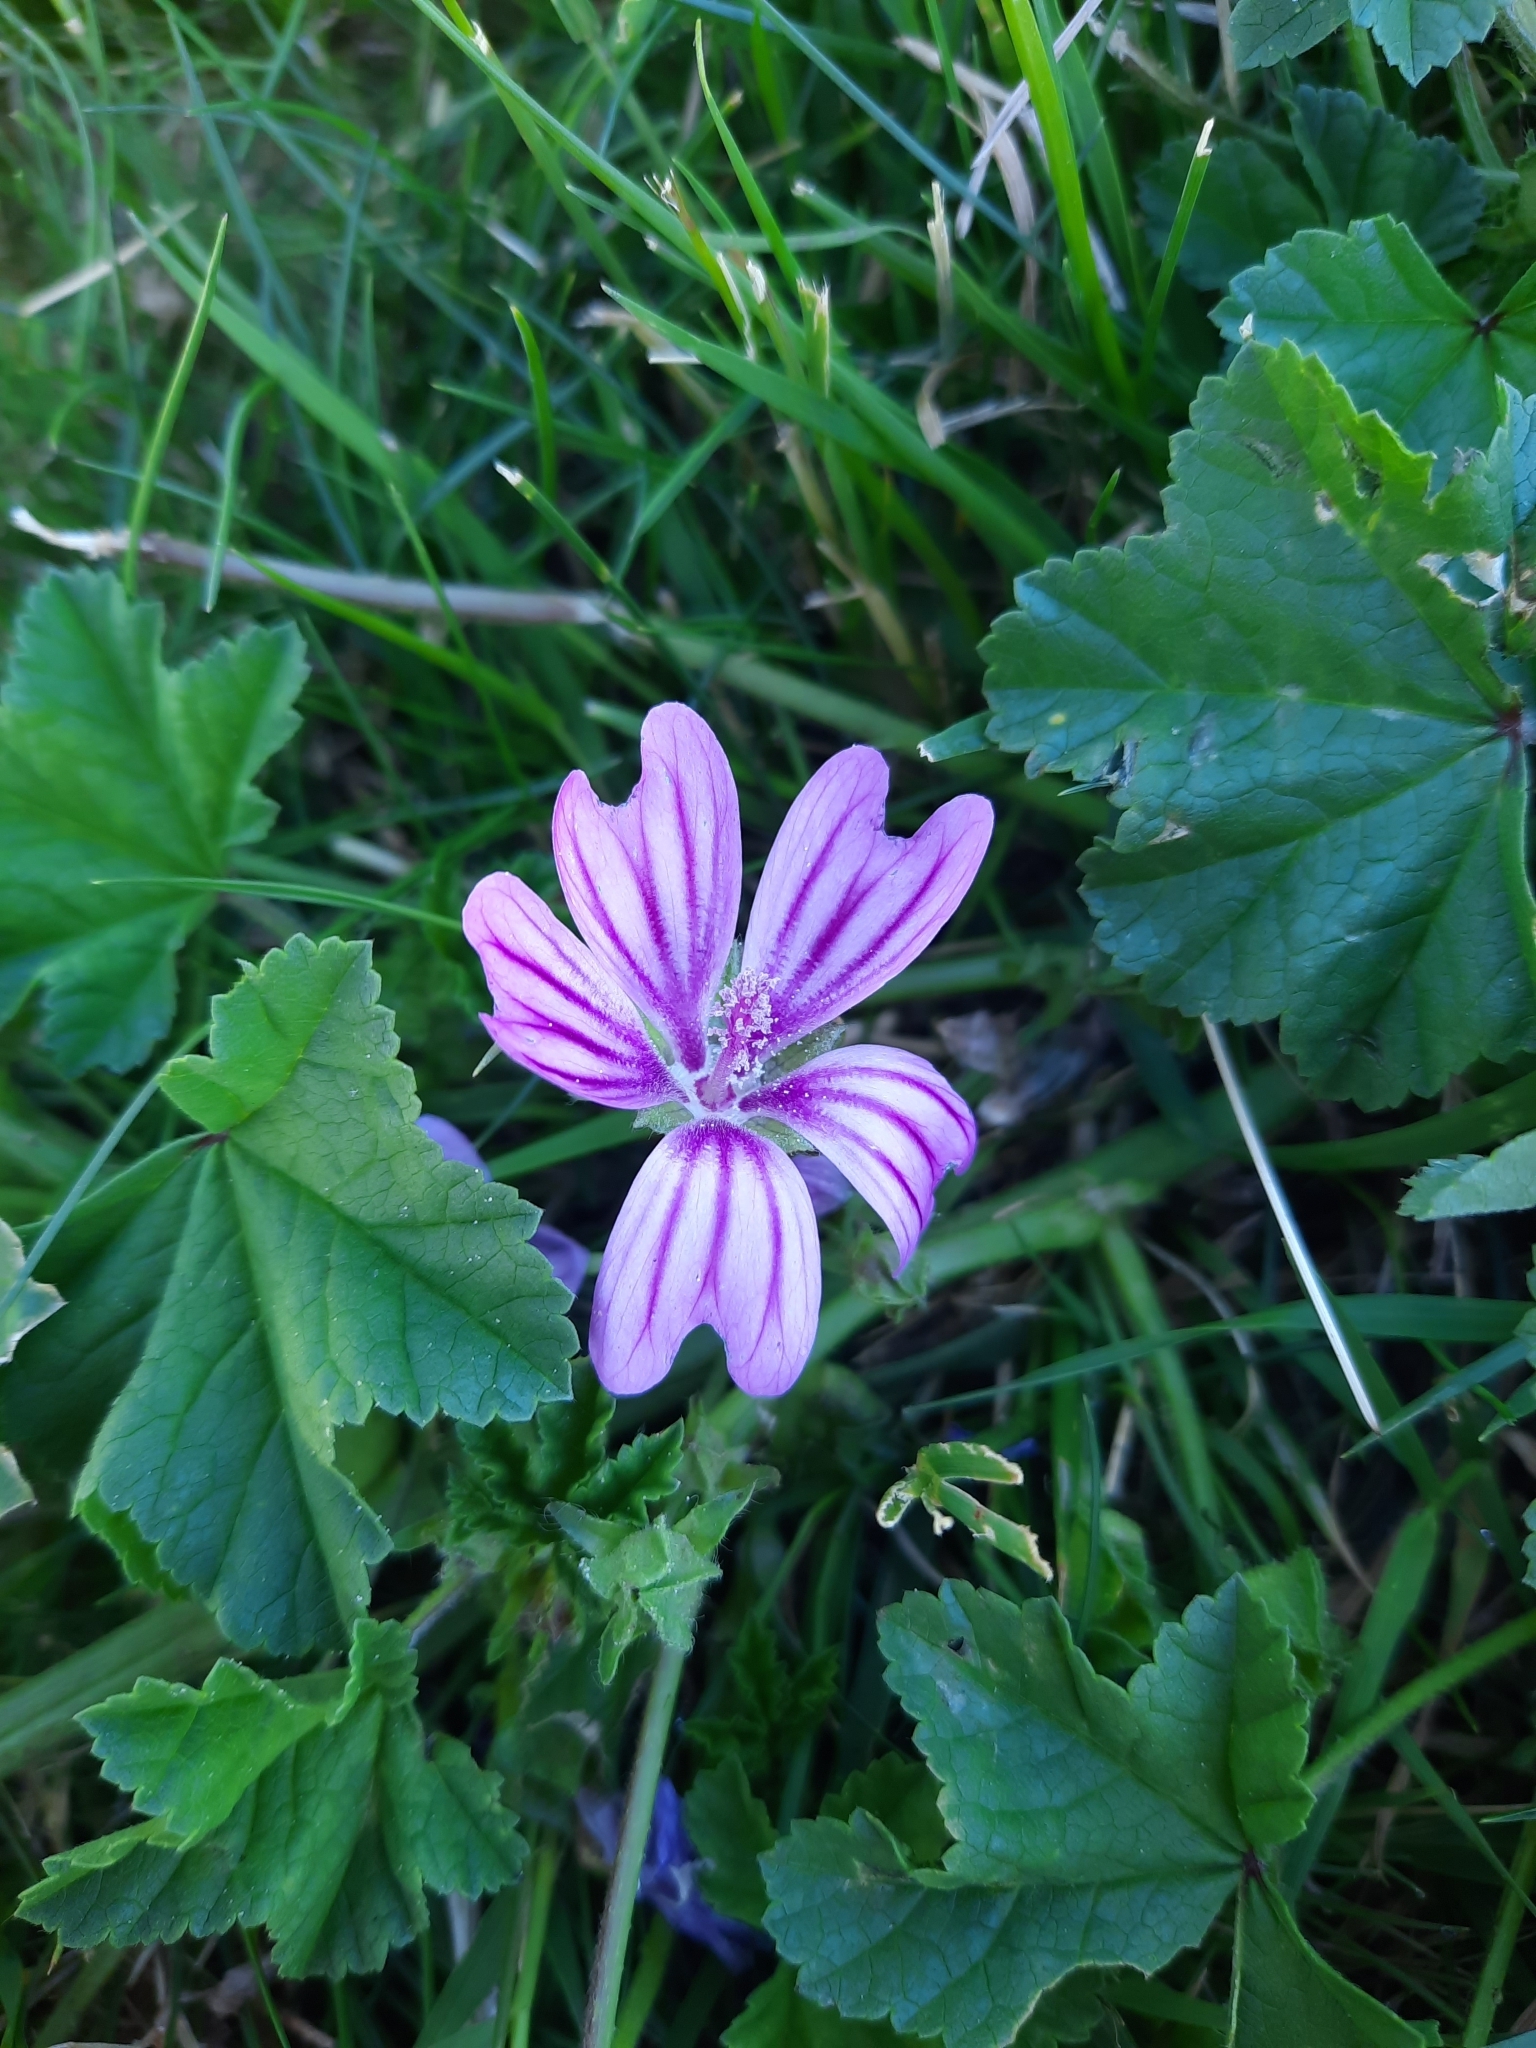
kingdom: Plantae
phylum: Tracheophyta
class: Magnoliopsida
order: Malvales
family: Malvaceae
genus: Malva
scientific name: Malva sylvestris
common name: Common mallow
